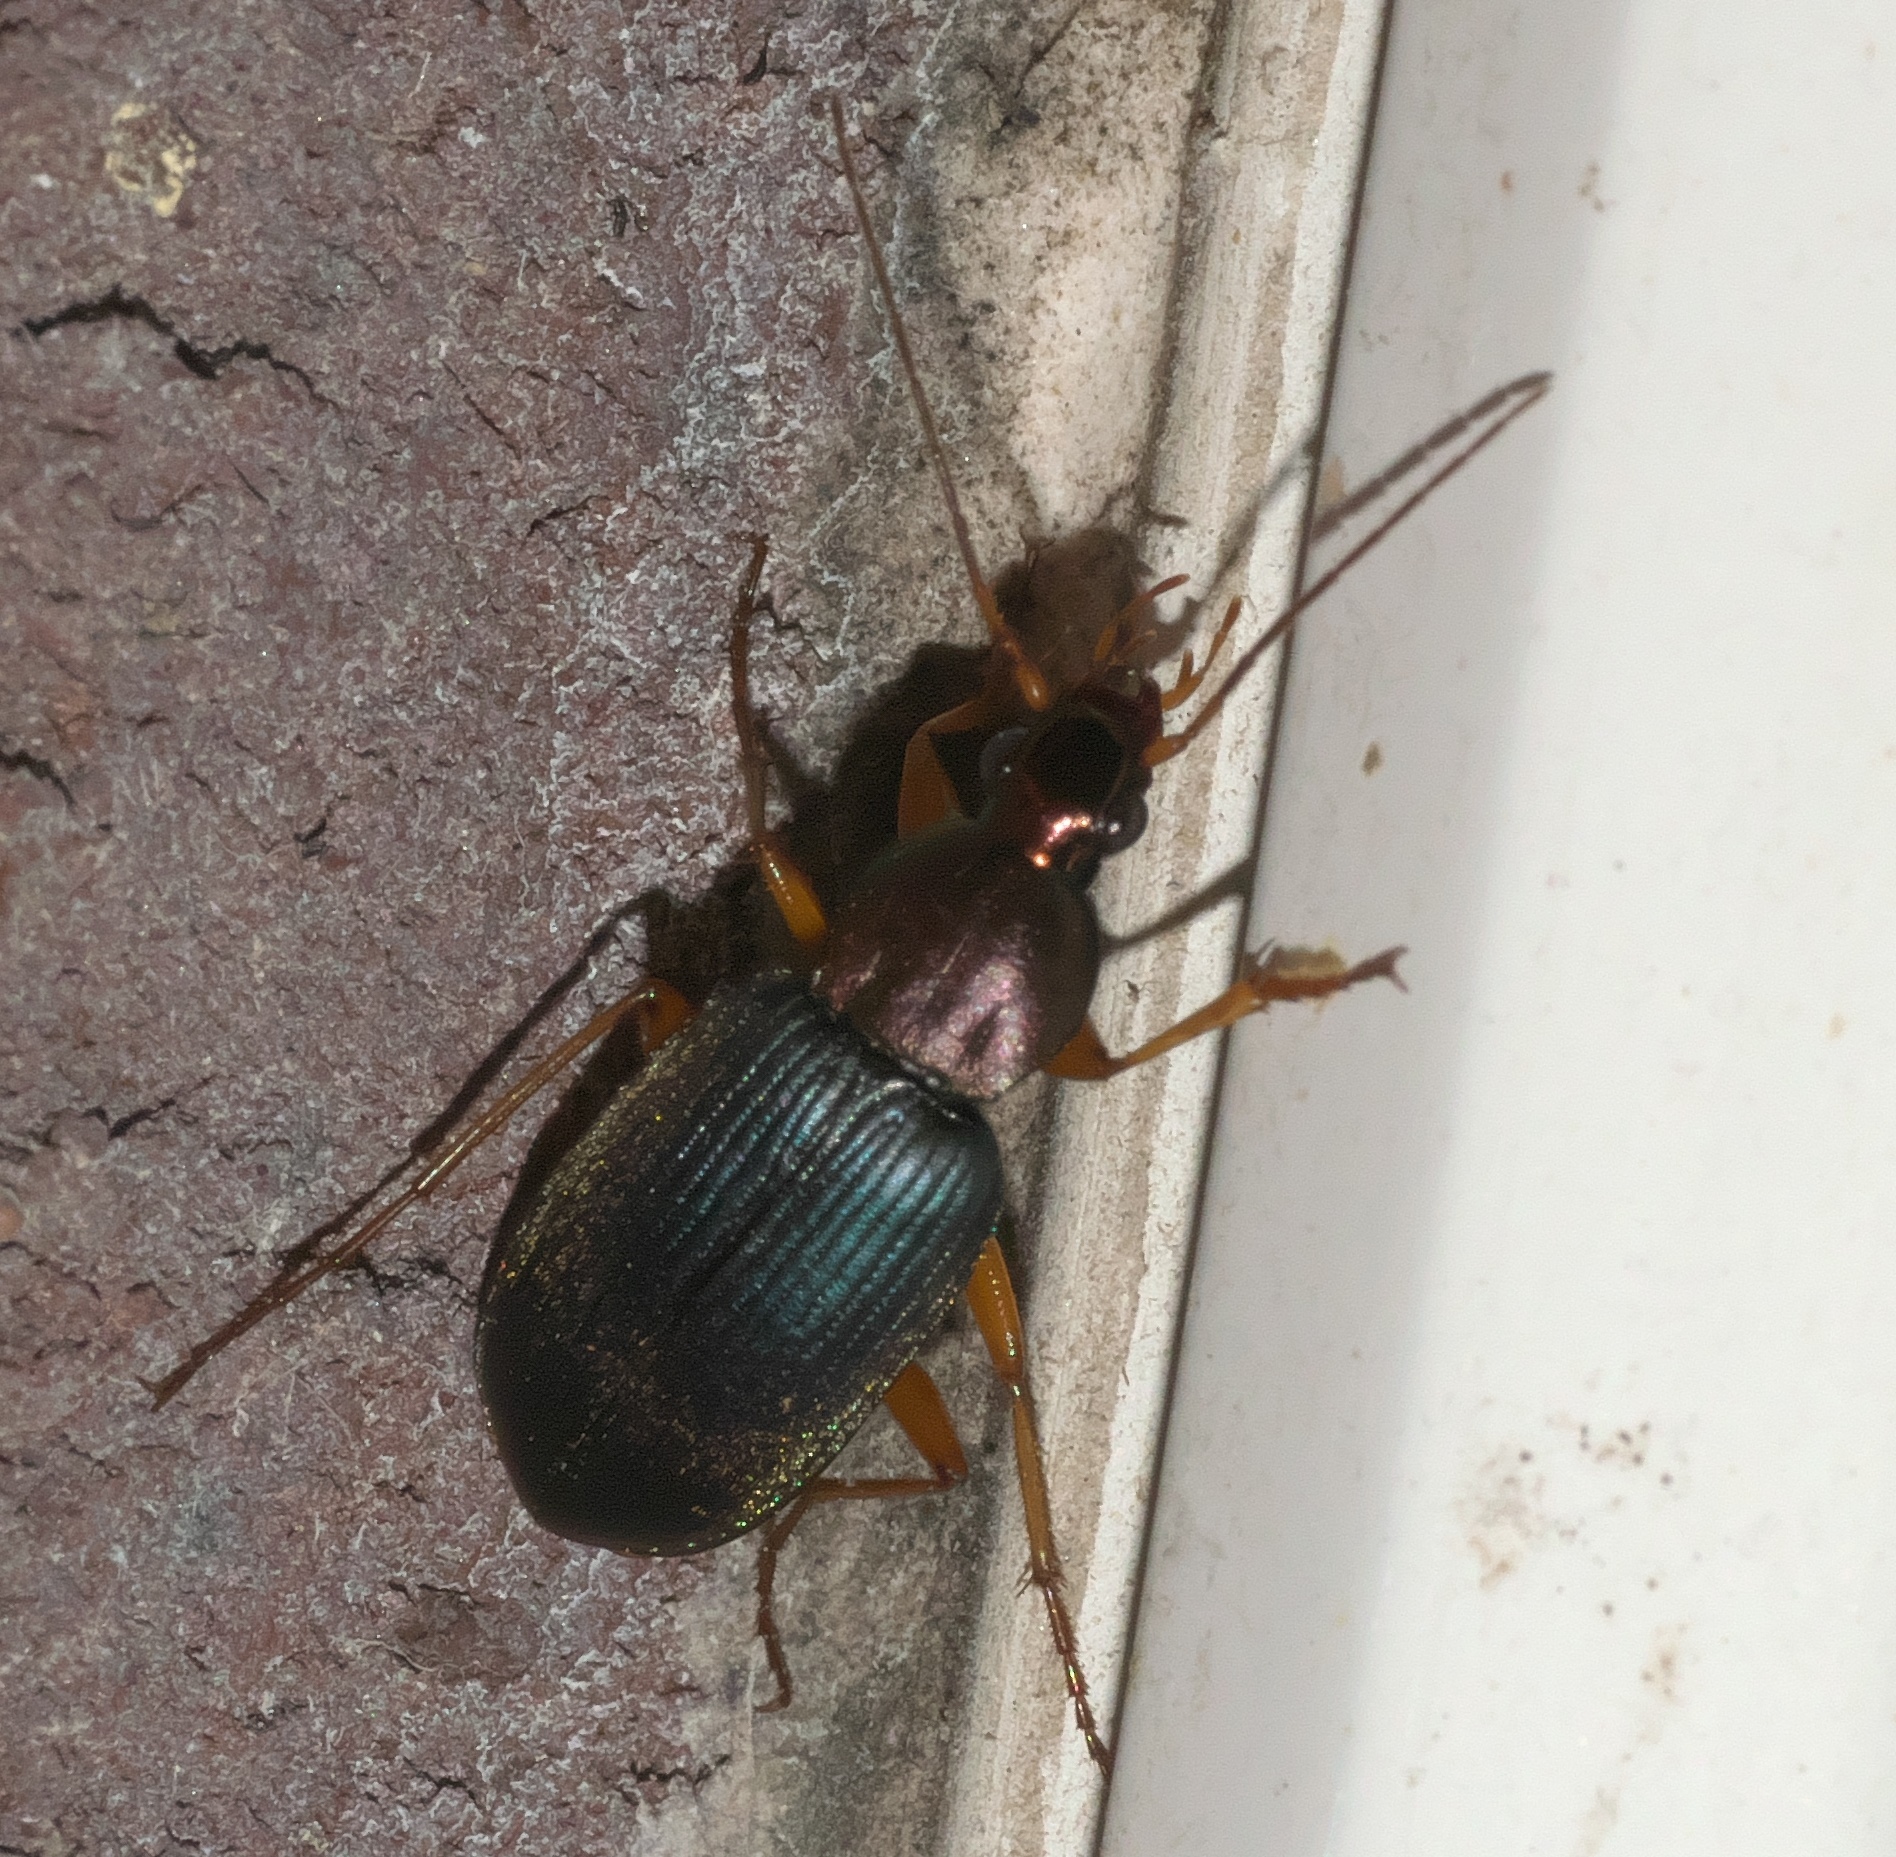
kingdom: Animalia
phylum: Arthropoda
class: Insecta
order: Coleoptera
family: Carabidae
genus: Chlaenius
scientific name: Chlaenius tricolor
